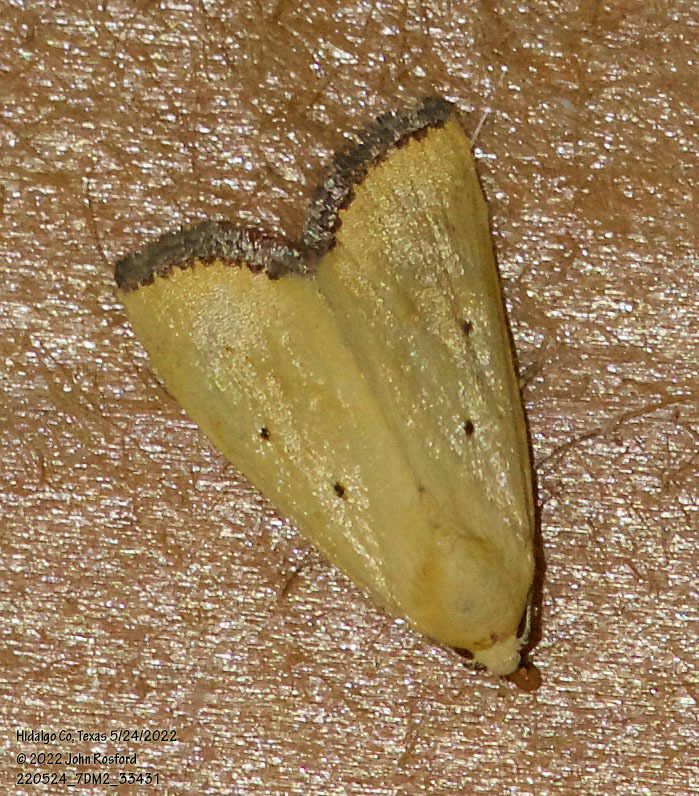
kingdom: Animalia
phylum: Arthropoda
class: Insecta
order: Lepidoptera
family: Noctuidae
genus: Marimatha
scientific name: Marimatha nigrofimbria
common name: Black-bordered lemon moth
